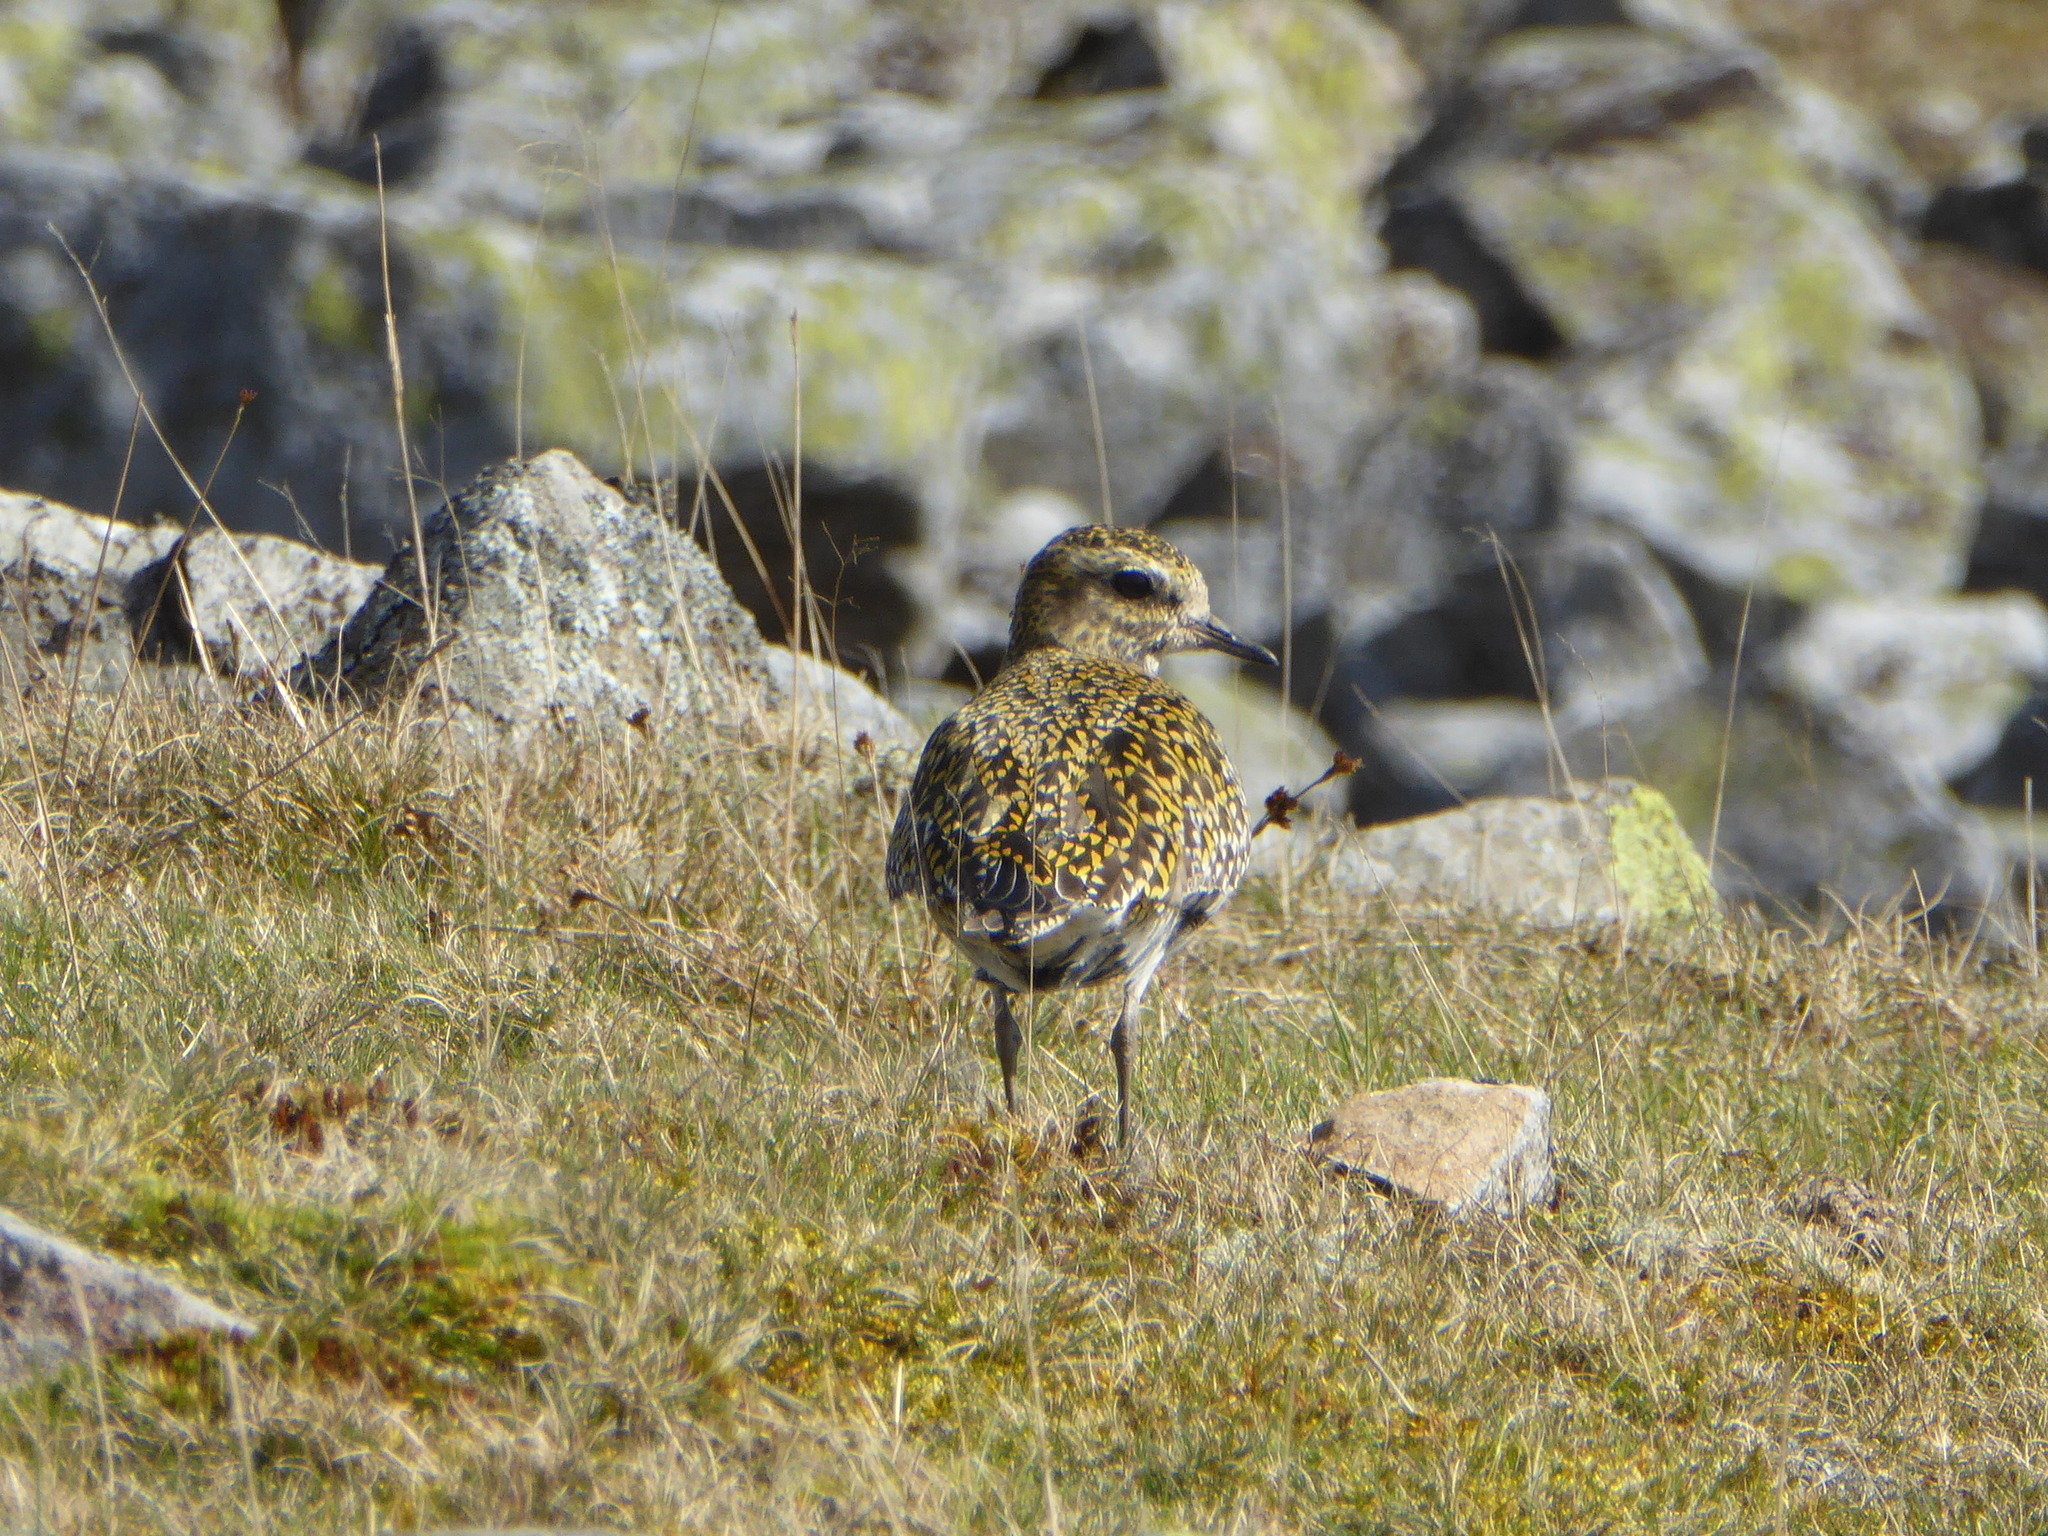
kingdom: Animalia
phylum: Chordata
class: Aves
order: Charadriiformes
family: Charadriidae
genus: Pluvialis
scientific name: Pluvialis apricaria
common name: European golden plover
